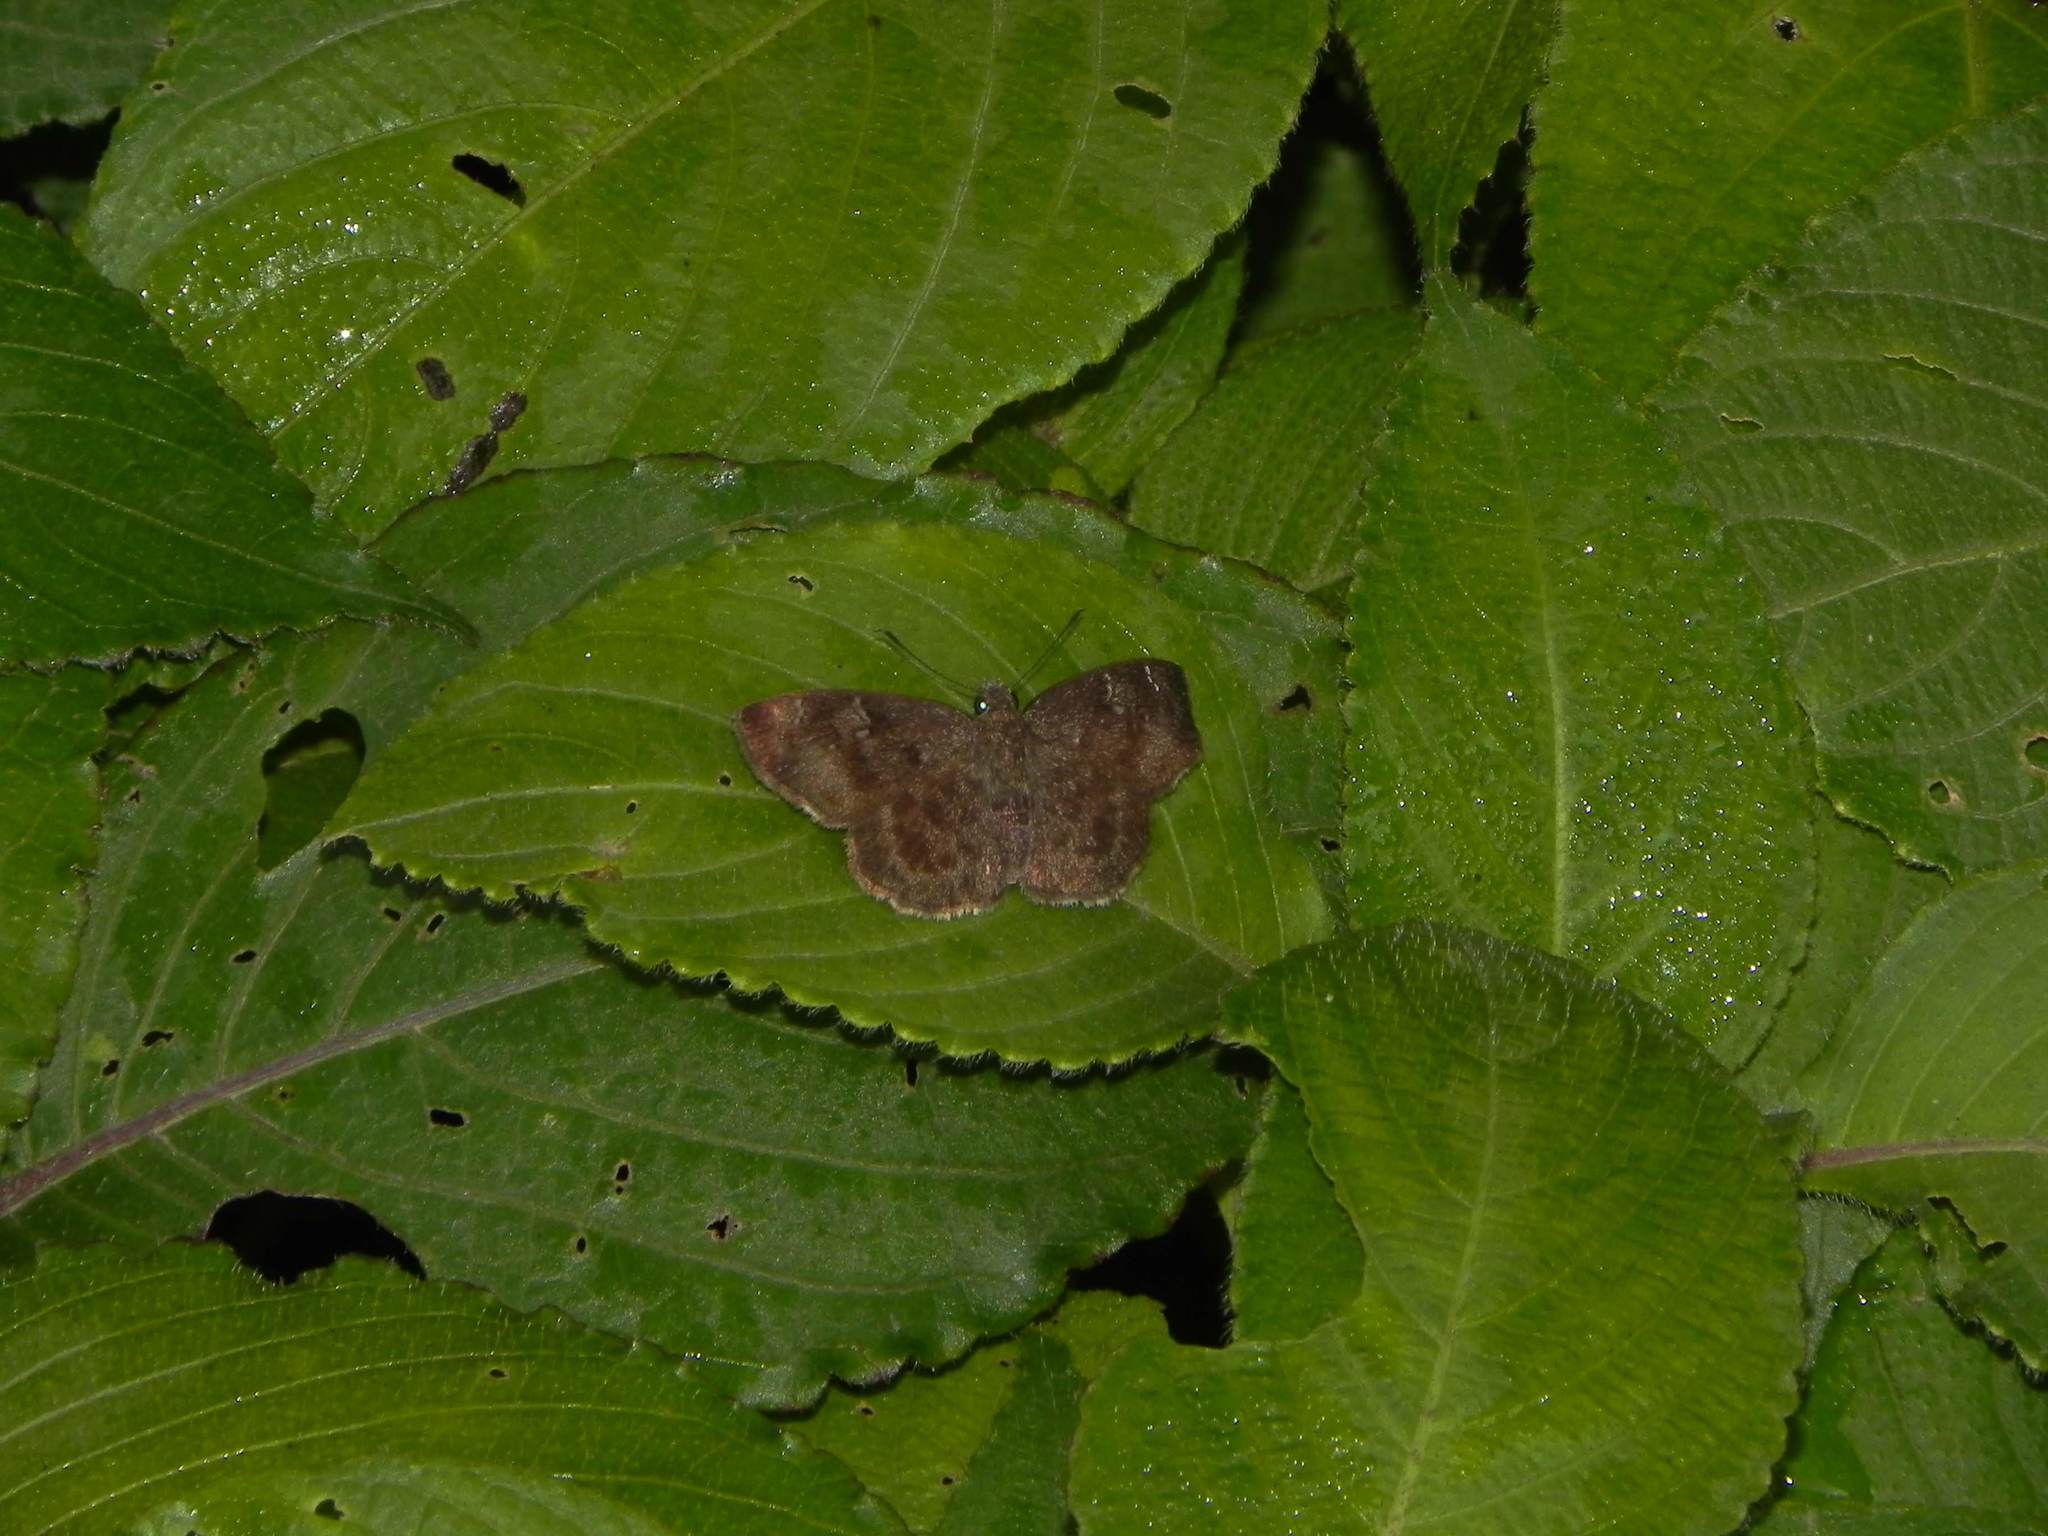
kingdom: Animalia
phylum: Arthropoda
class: Insecta
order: Lepidoptera
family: Hesperiidae
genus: Sarangesa
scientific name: Sarangesa dasahara
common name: Common small flat
